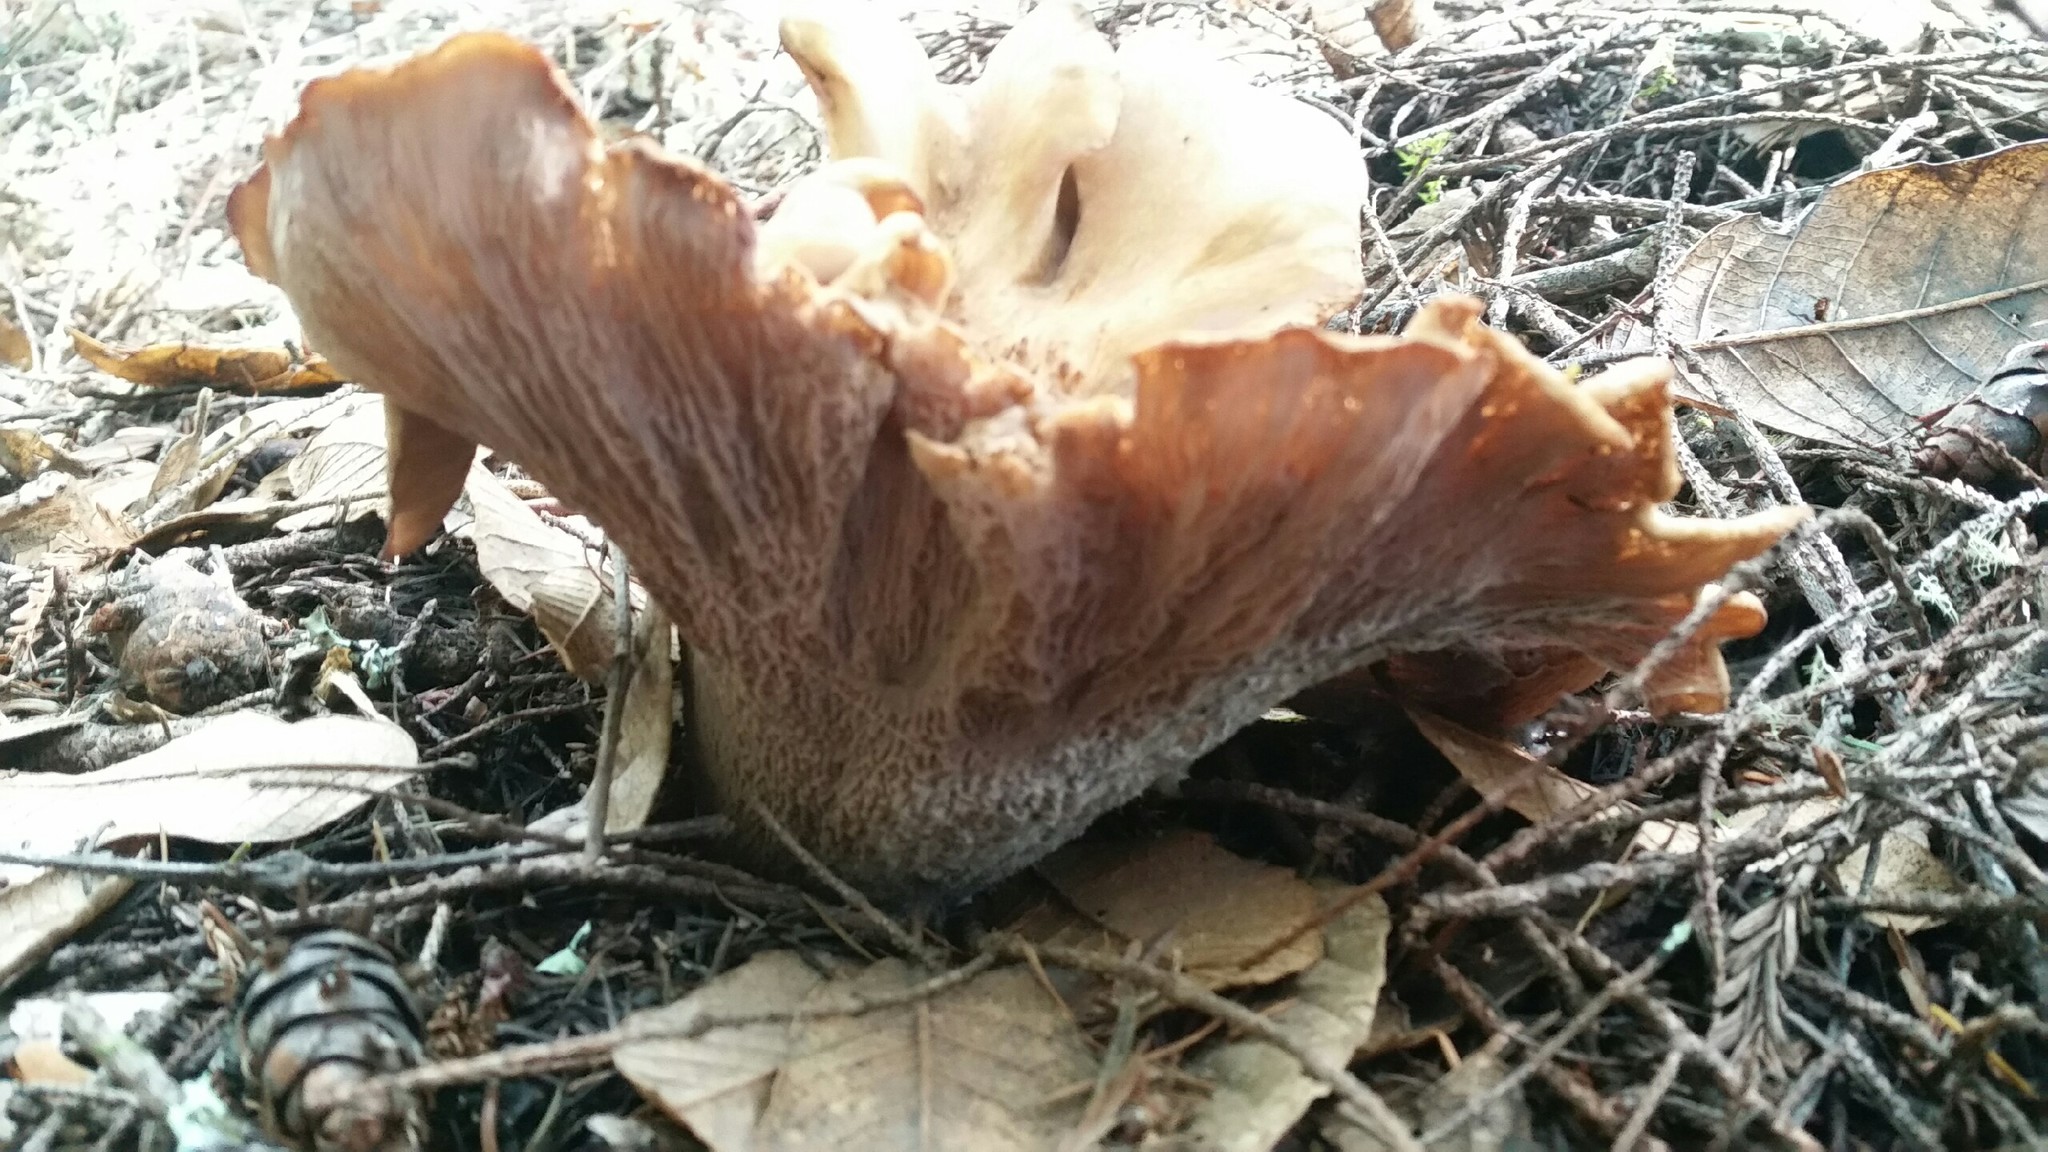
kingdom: Fungi
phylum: Basidiomycota
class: Agaricomycetes
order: Gomphales
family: Gomphaceae
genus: Gomphus
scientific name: Gomphus clavatus
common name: Pig's ear
